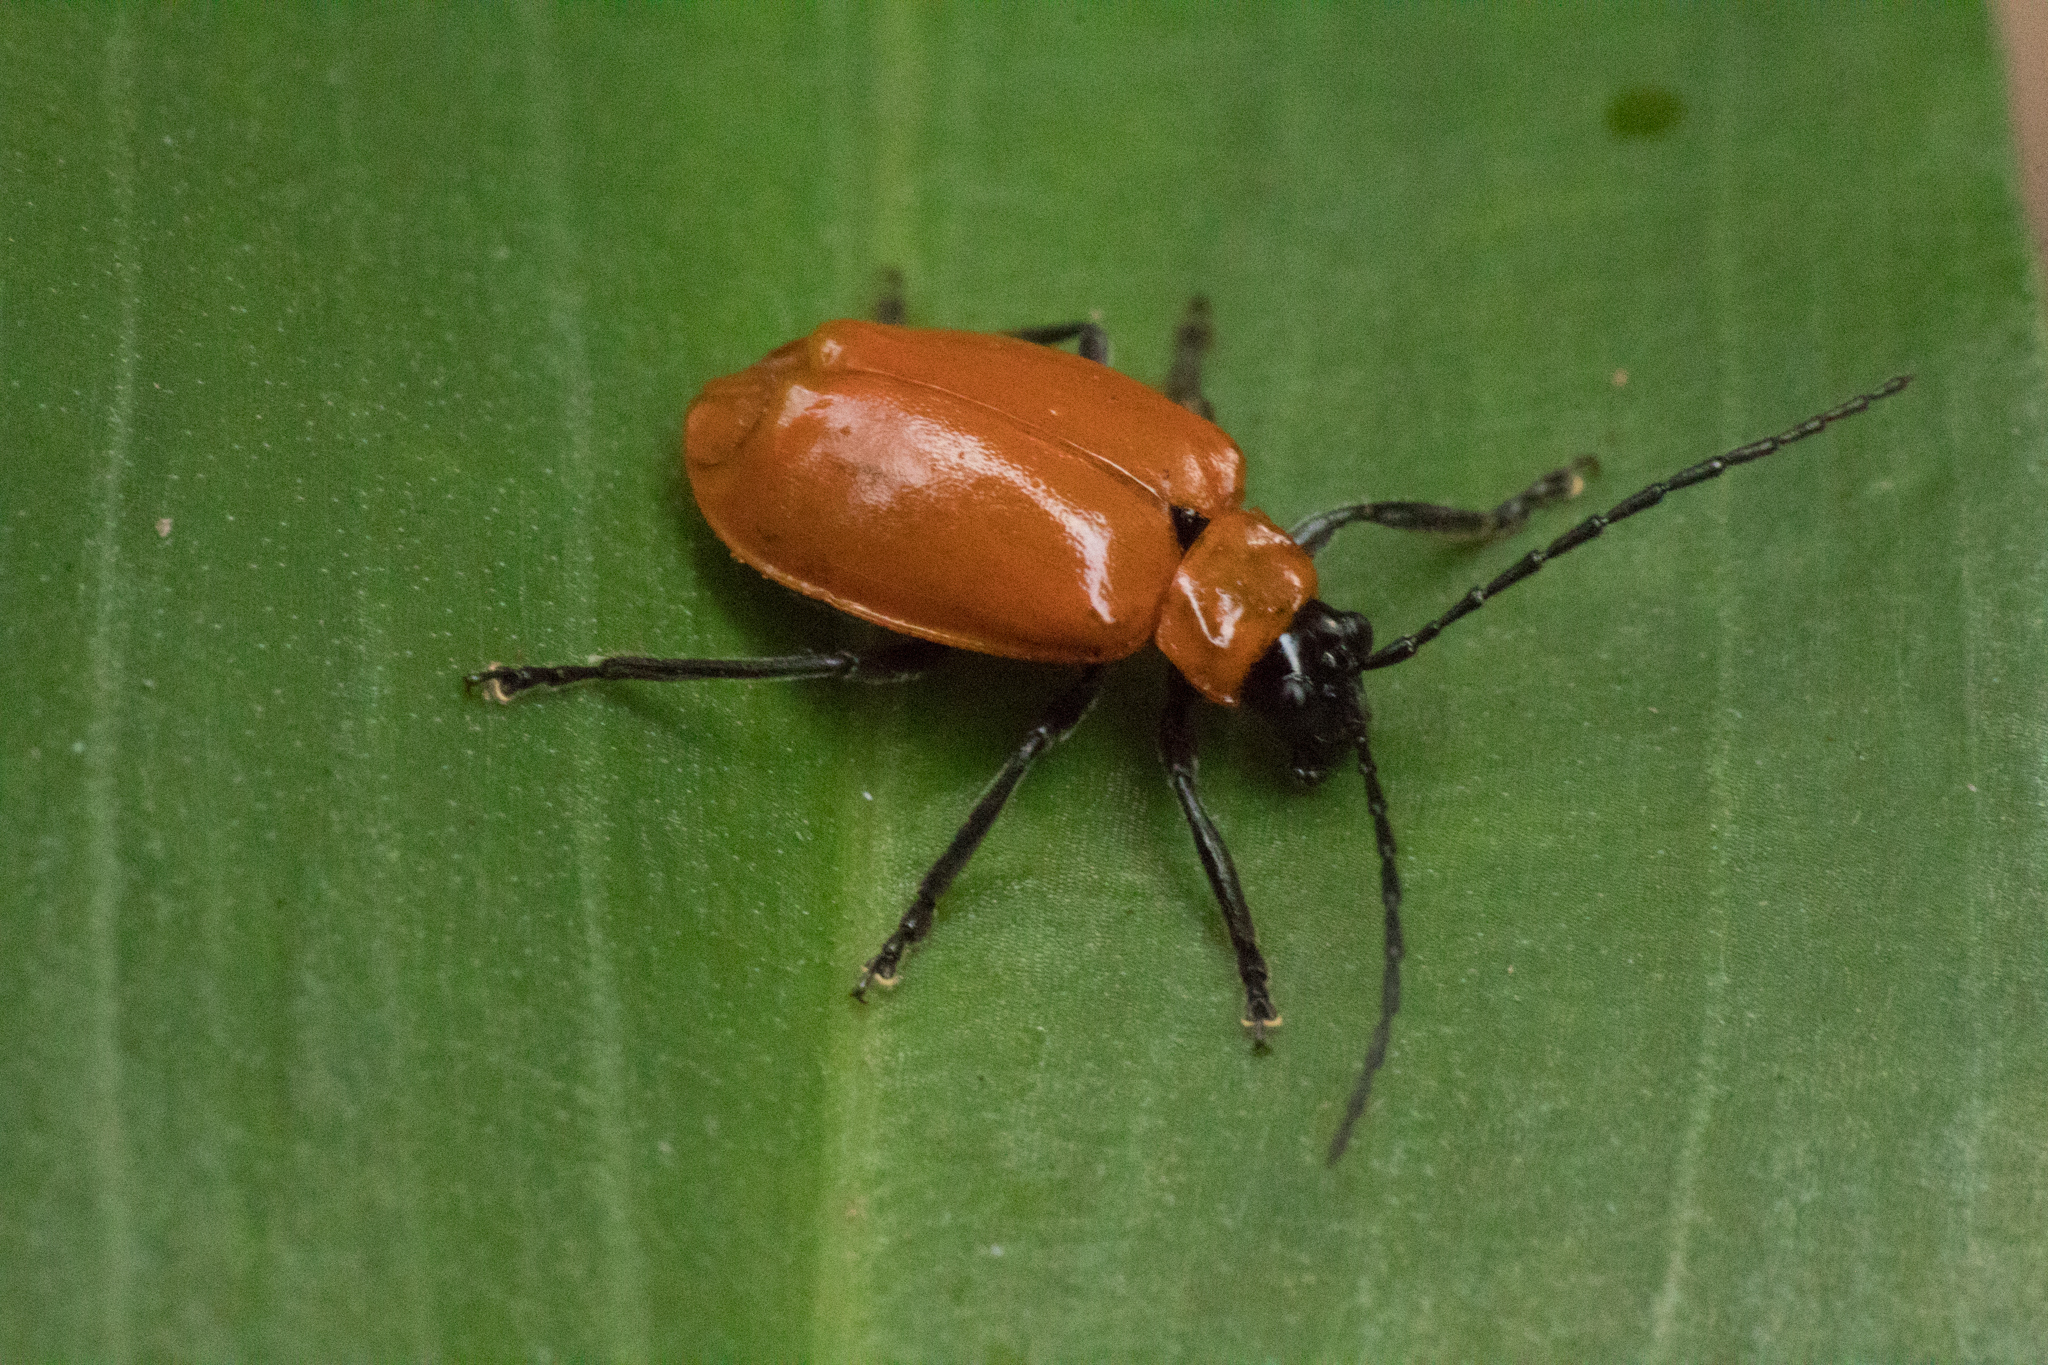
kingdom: Animalia
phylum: Arthropoda
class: Insecta
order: Coleoptera
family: Chrysomelidae
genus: Isotes
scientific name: Isotes
